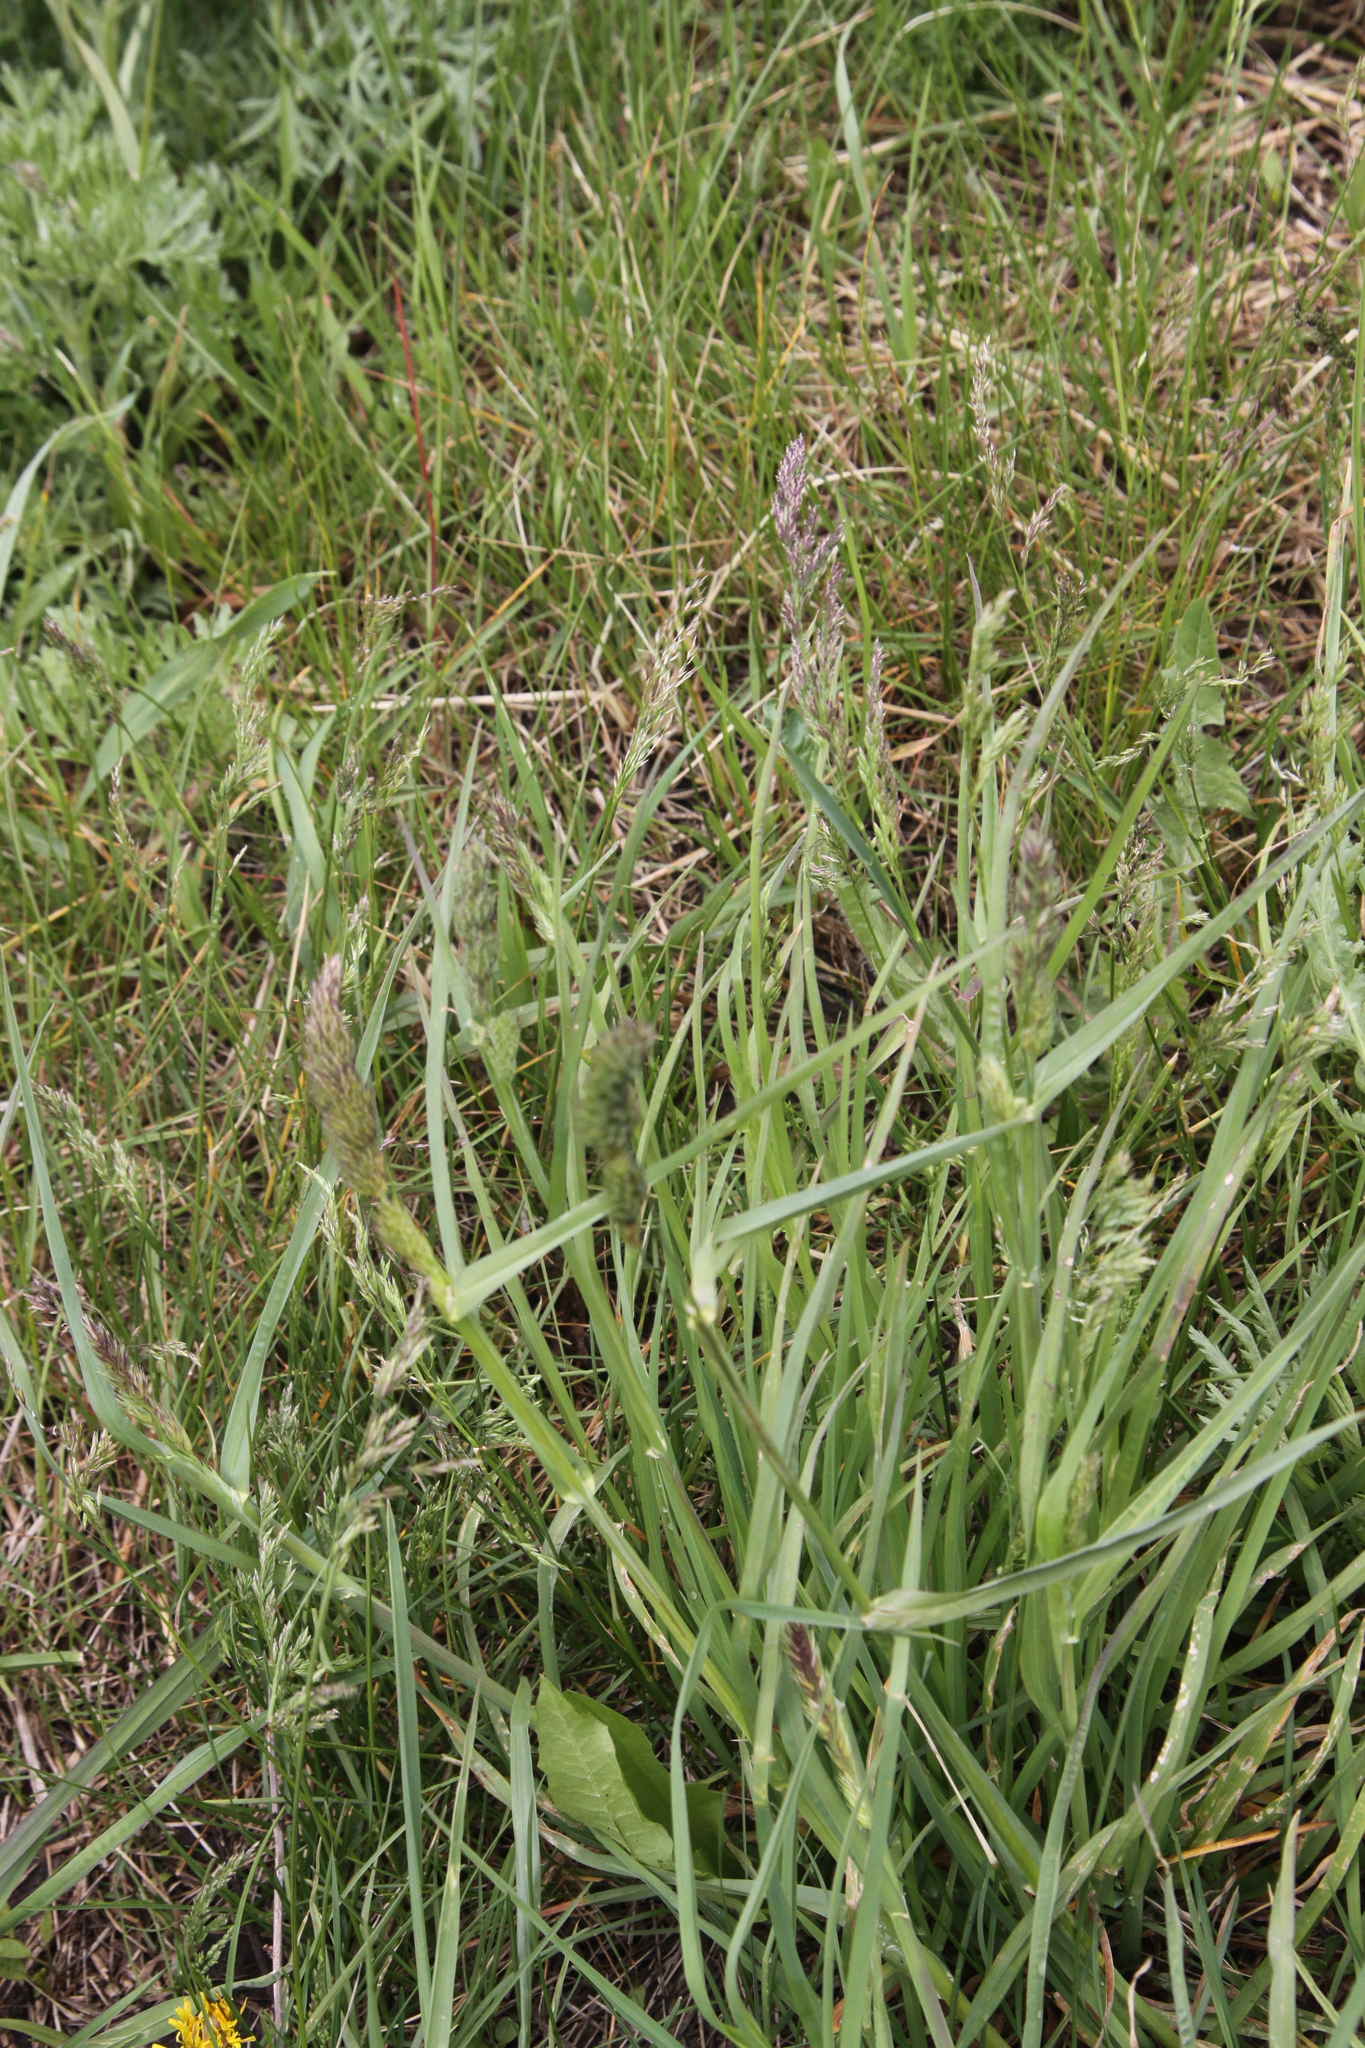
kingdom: Plantae
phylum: Tracheophyta
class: Liliopsida
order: Poales
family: Poaceae
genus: Dactylis
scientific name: Dactylis glomerata
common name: Orchardgrass
